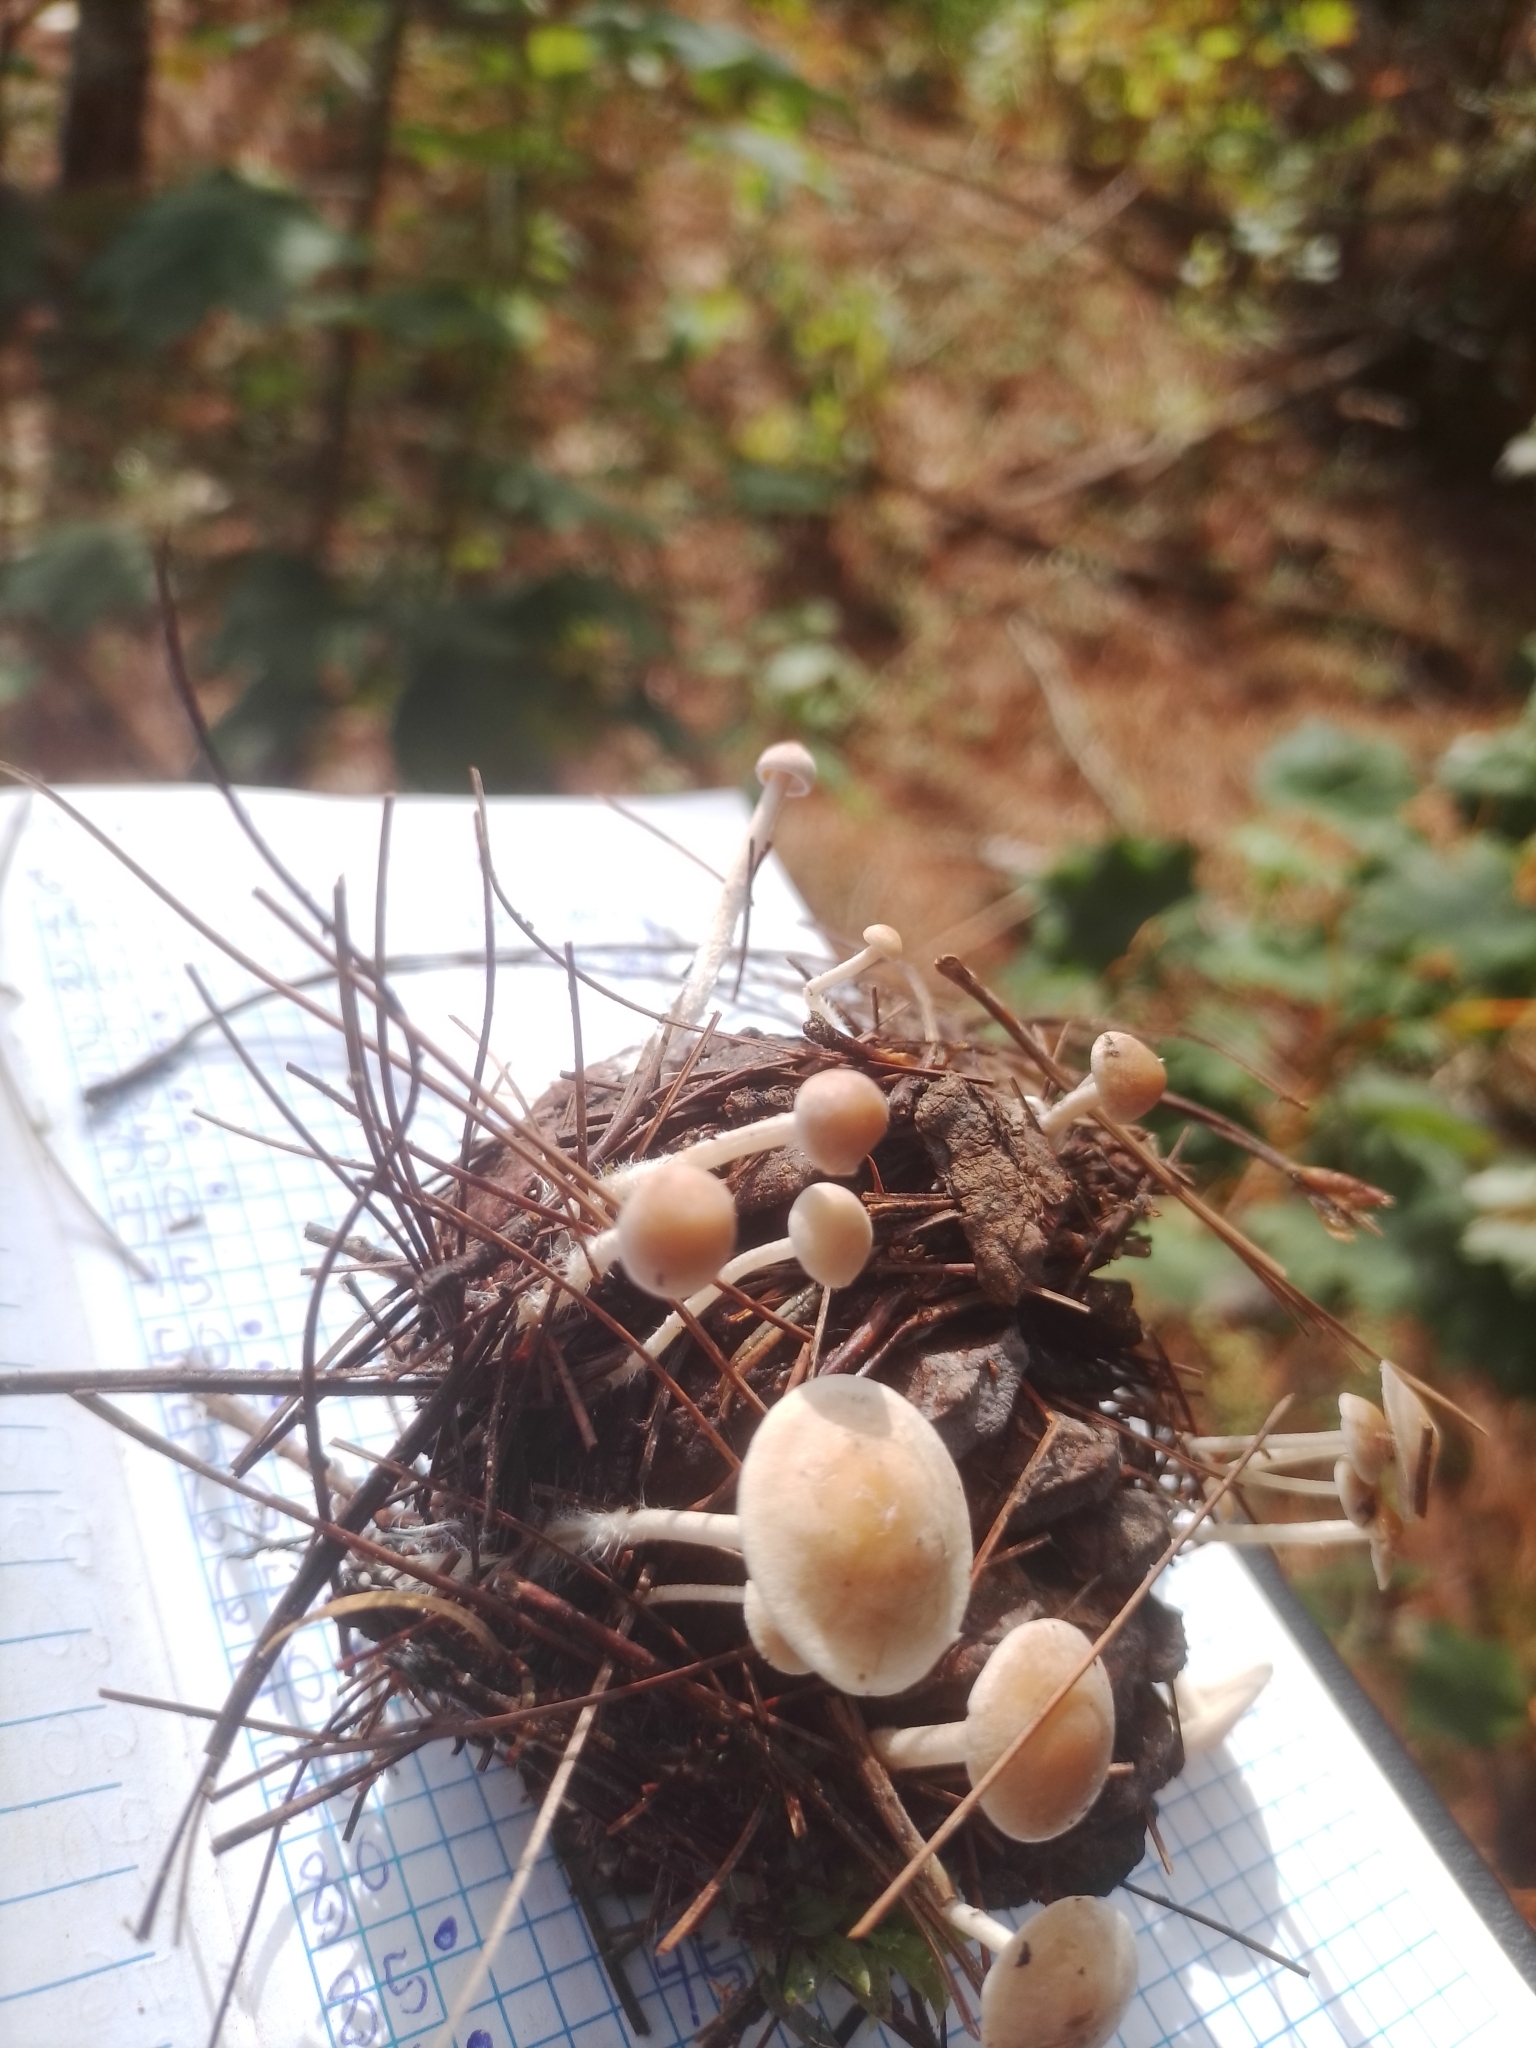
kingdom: Fungi
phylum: Basidiomycota
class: Agaricomycetes
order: Agaricales
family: Marasmiaceae
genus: Baeospora
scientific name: Baeospora myosura
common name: Conifercone cap
